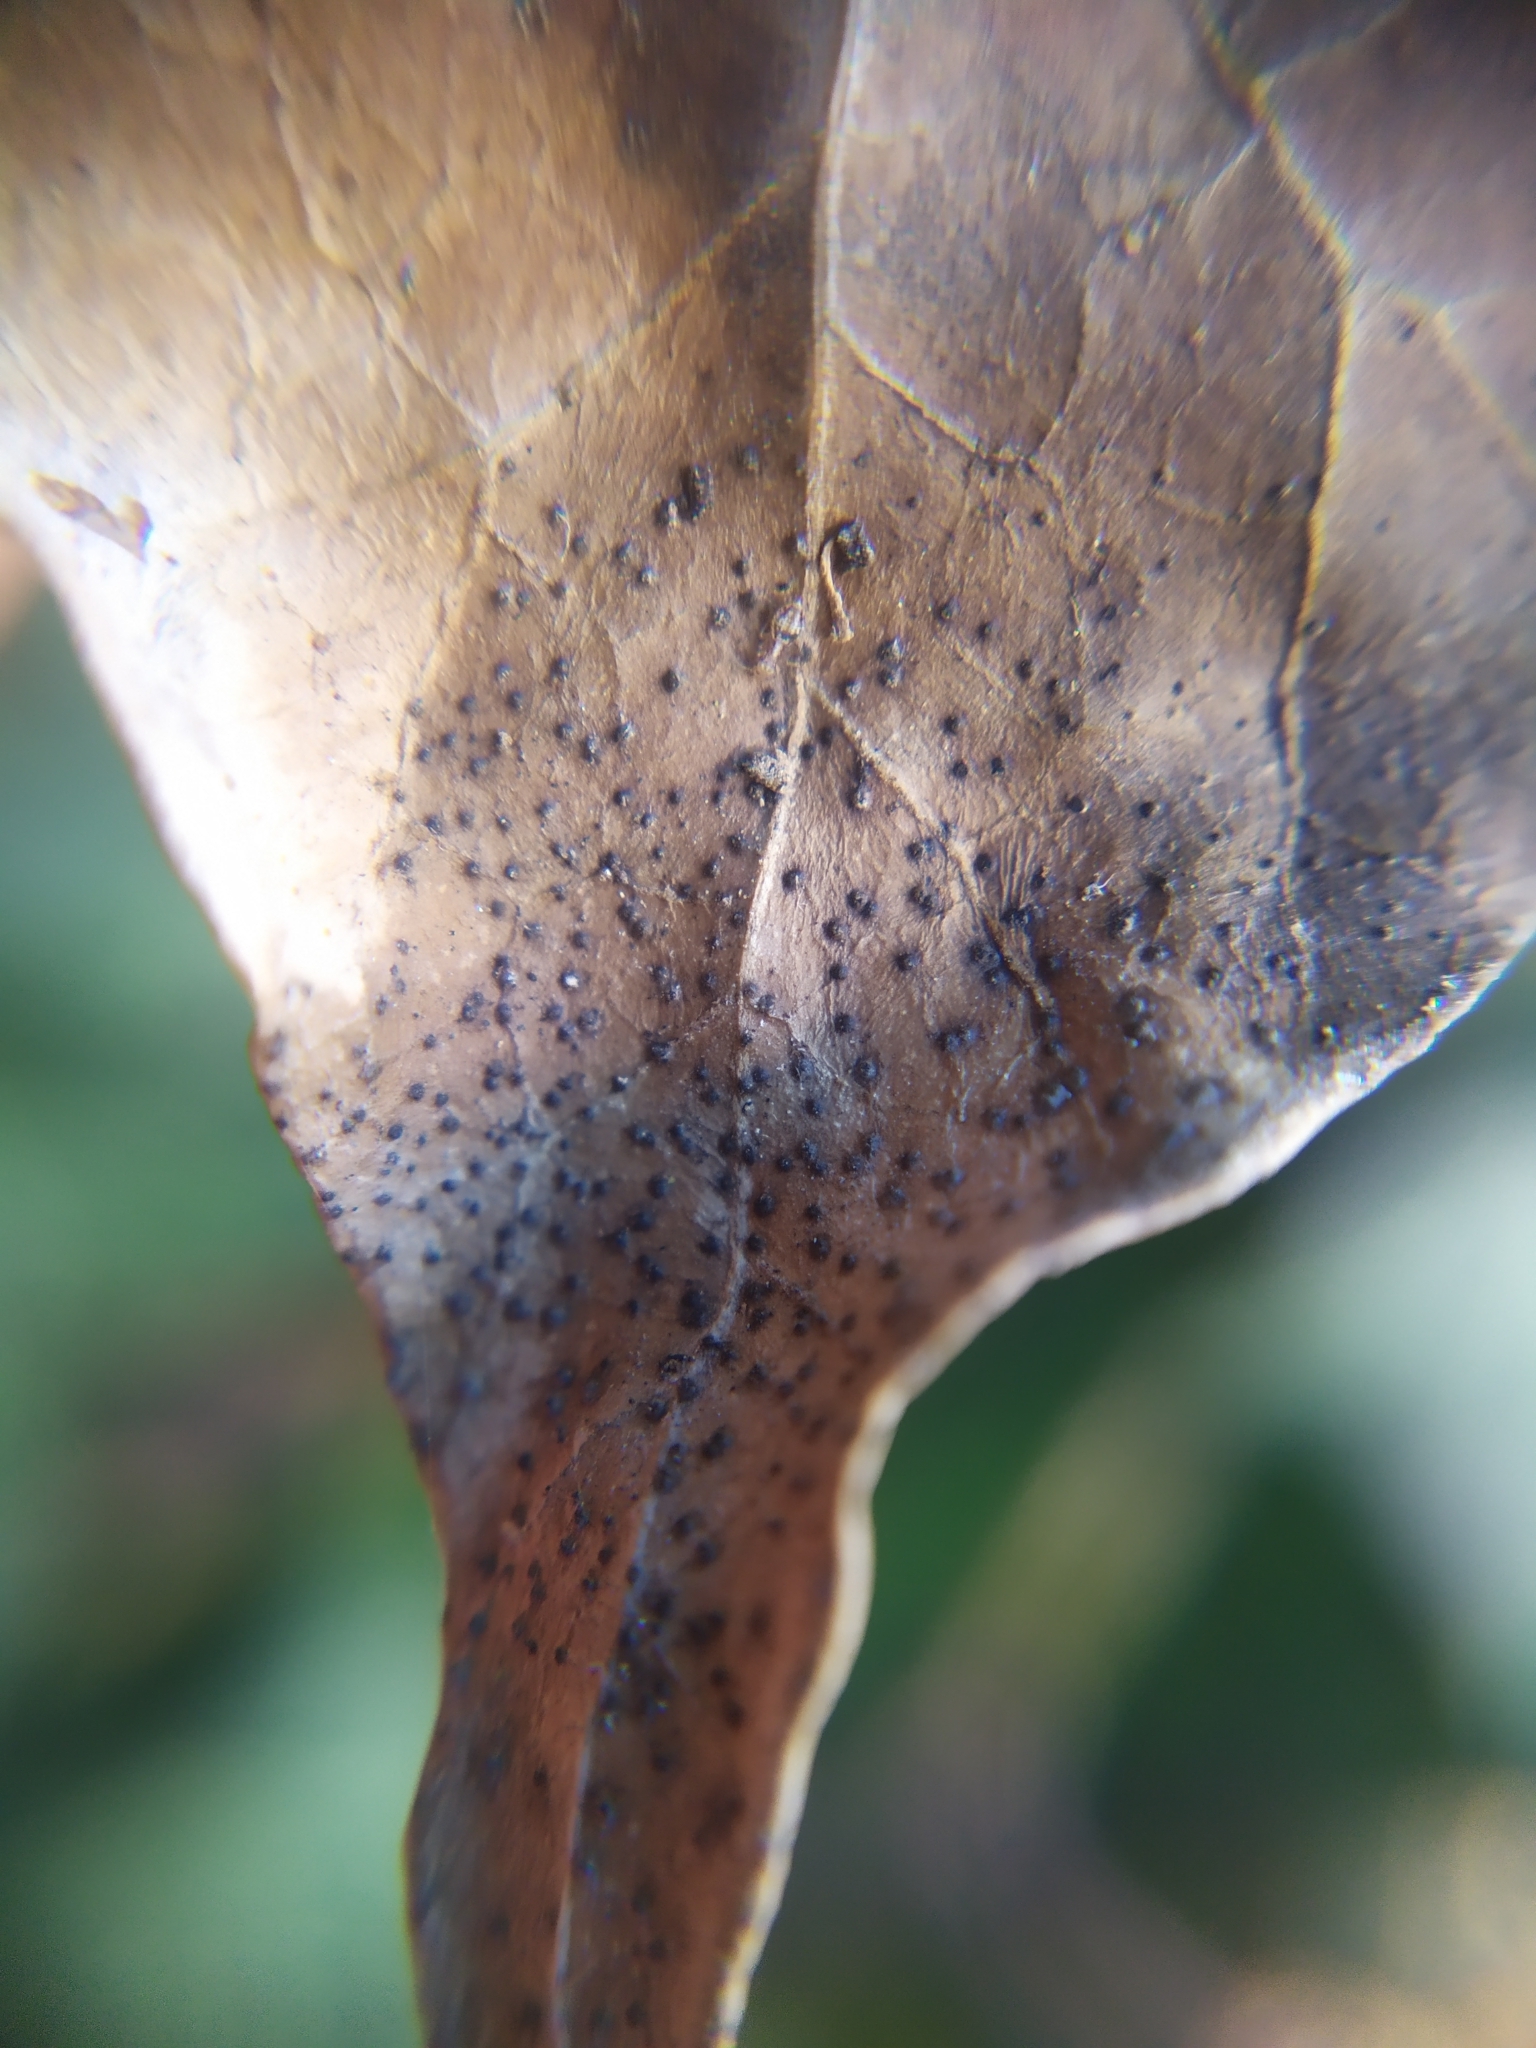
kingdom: Fungi
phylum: Ascomycota
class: Leotiomycetes
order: Helotiales
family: Cenangiaceae
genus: Trochila
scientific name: Trochila craterium
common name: Ivy speckle
